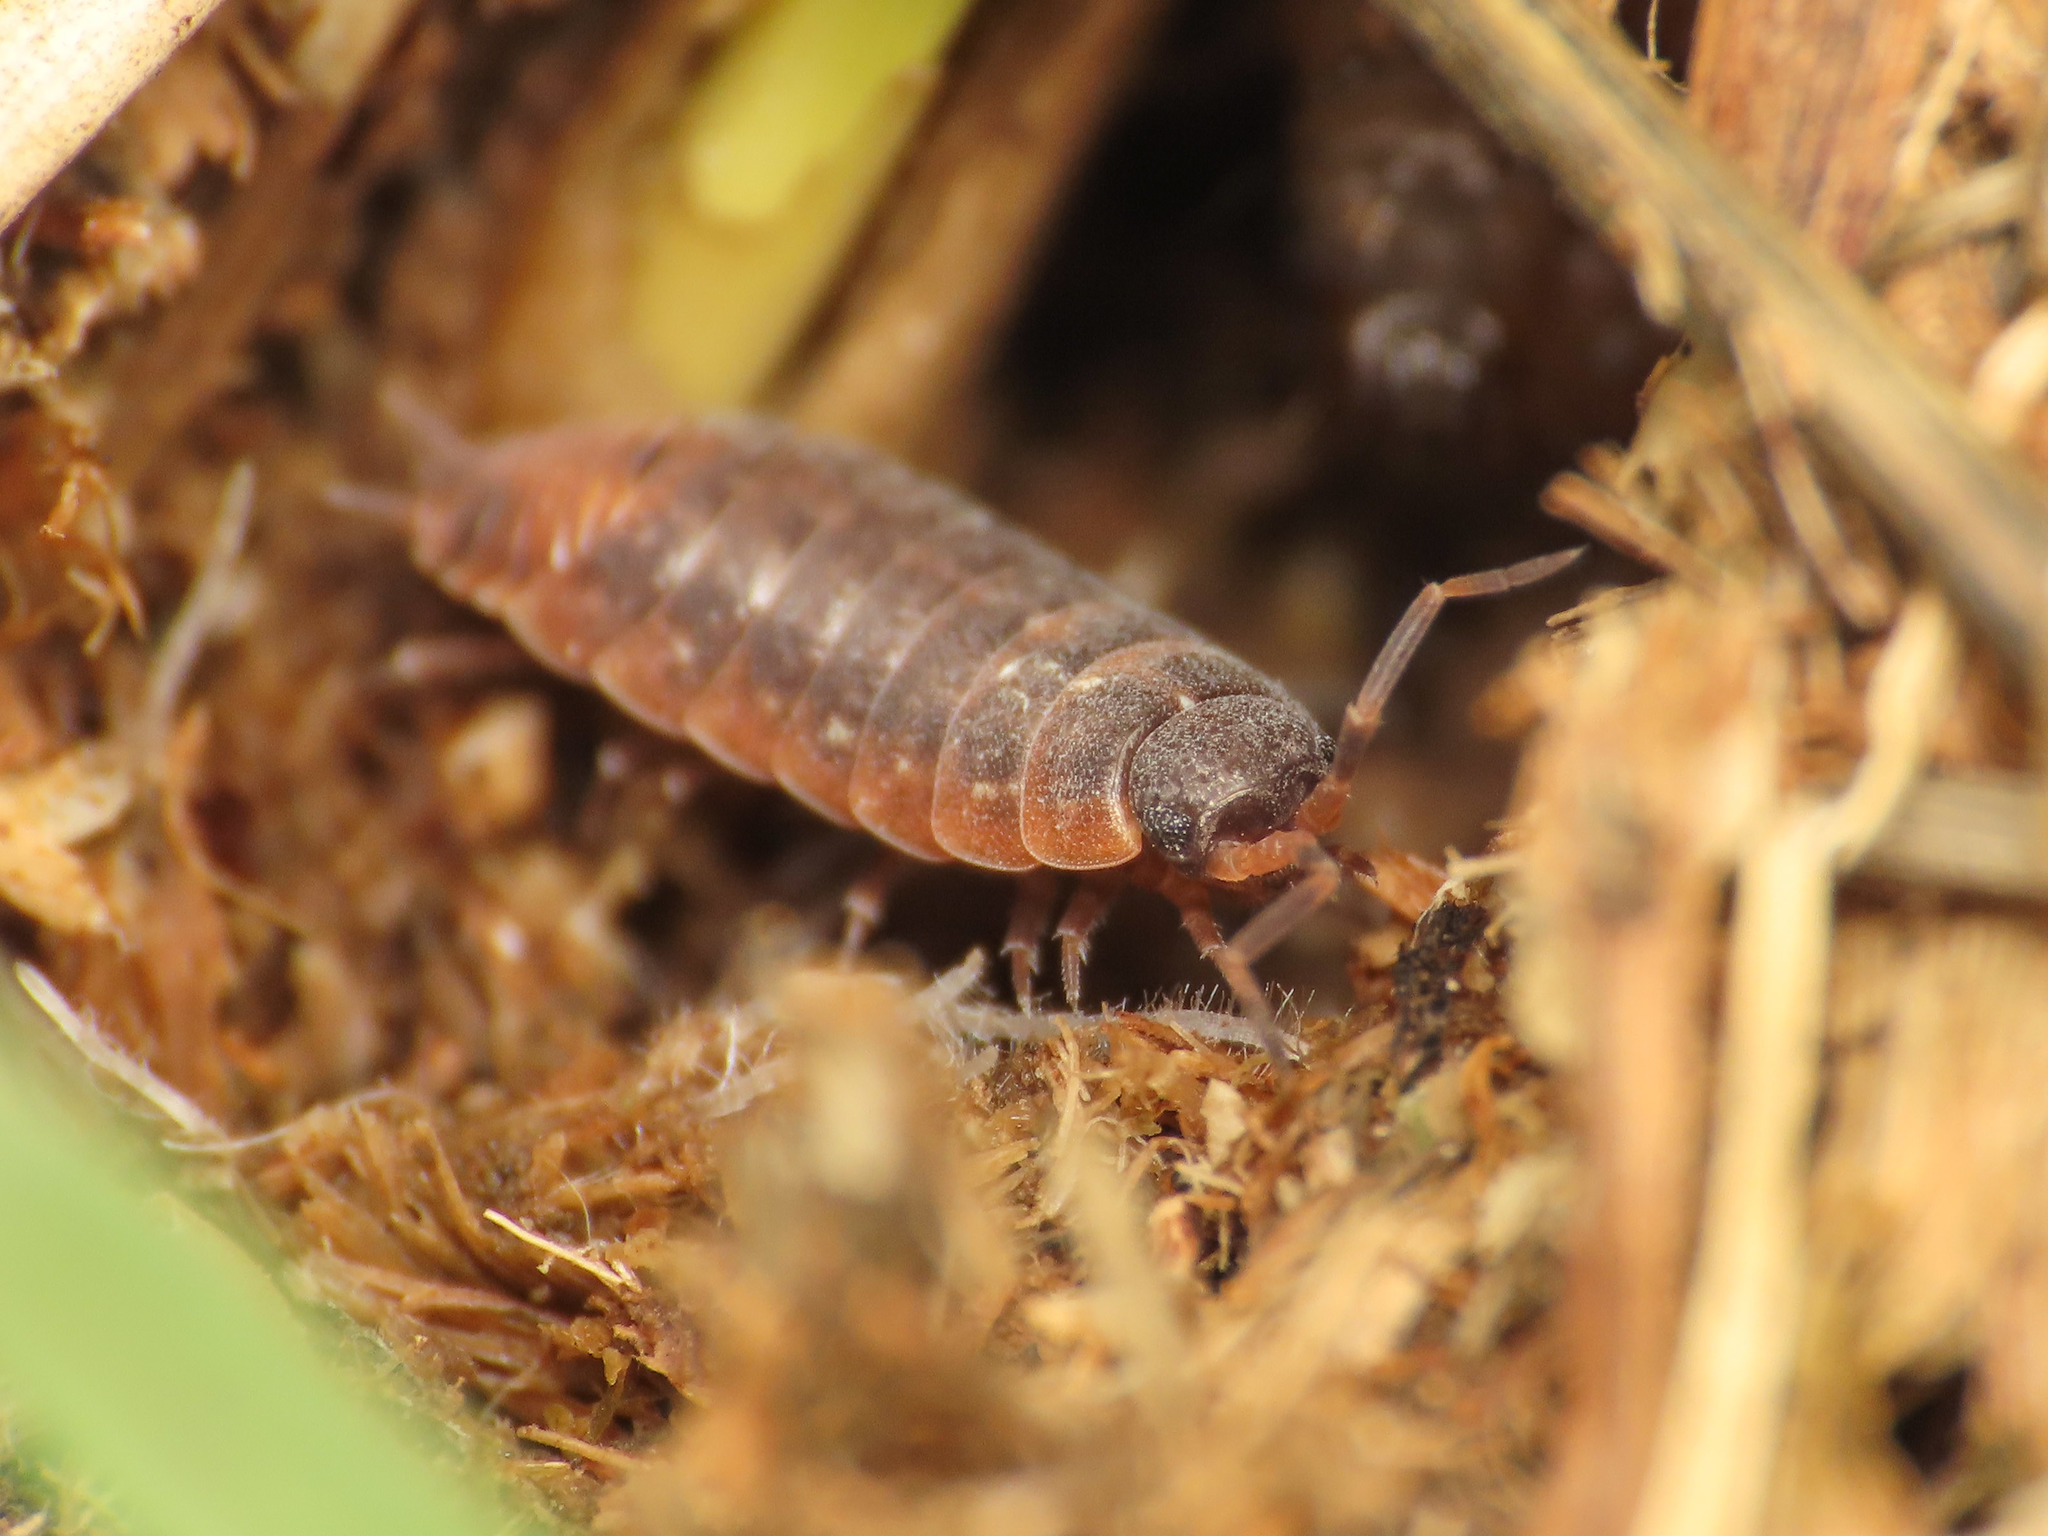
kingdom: Animalia
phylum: Arthropoda
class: Malacostraca
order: Isopoda
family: Porcellionidae
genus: Porcellionides
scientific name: Porcellionides aternanus
